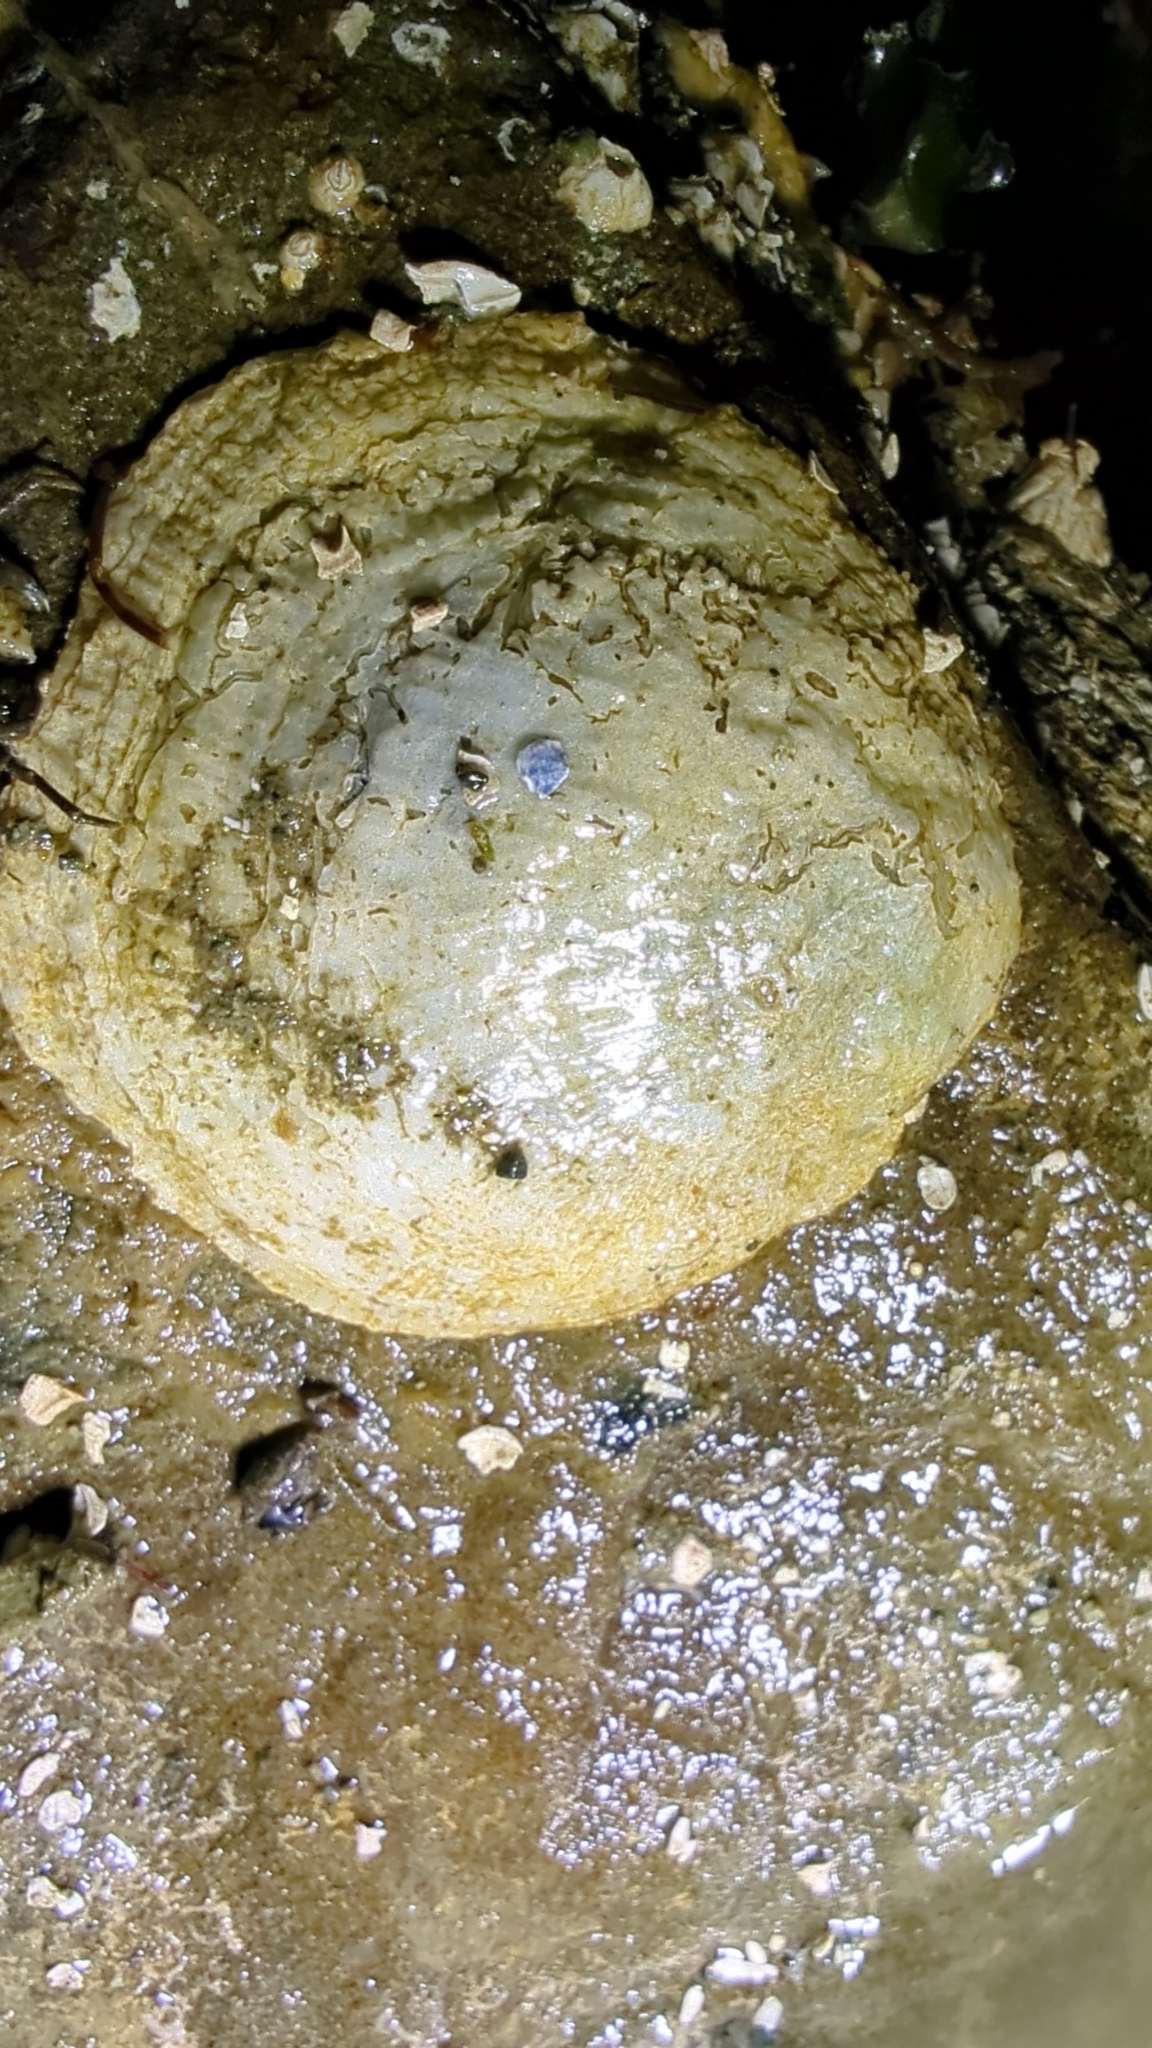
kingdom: Animalia
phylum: Mollusca
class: Bivalvia
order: Pectinida
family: Anomiidae
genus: Pododesmus
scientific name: Pododesmus macrochisma
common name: Alaska jingle
